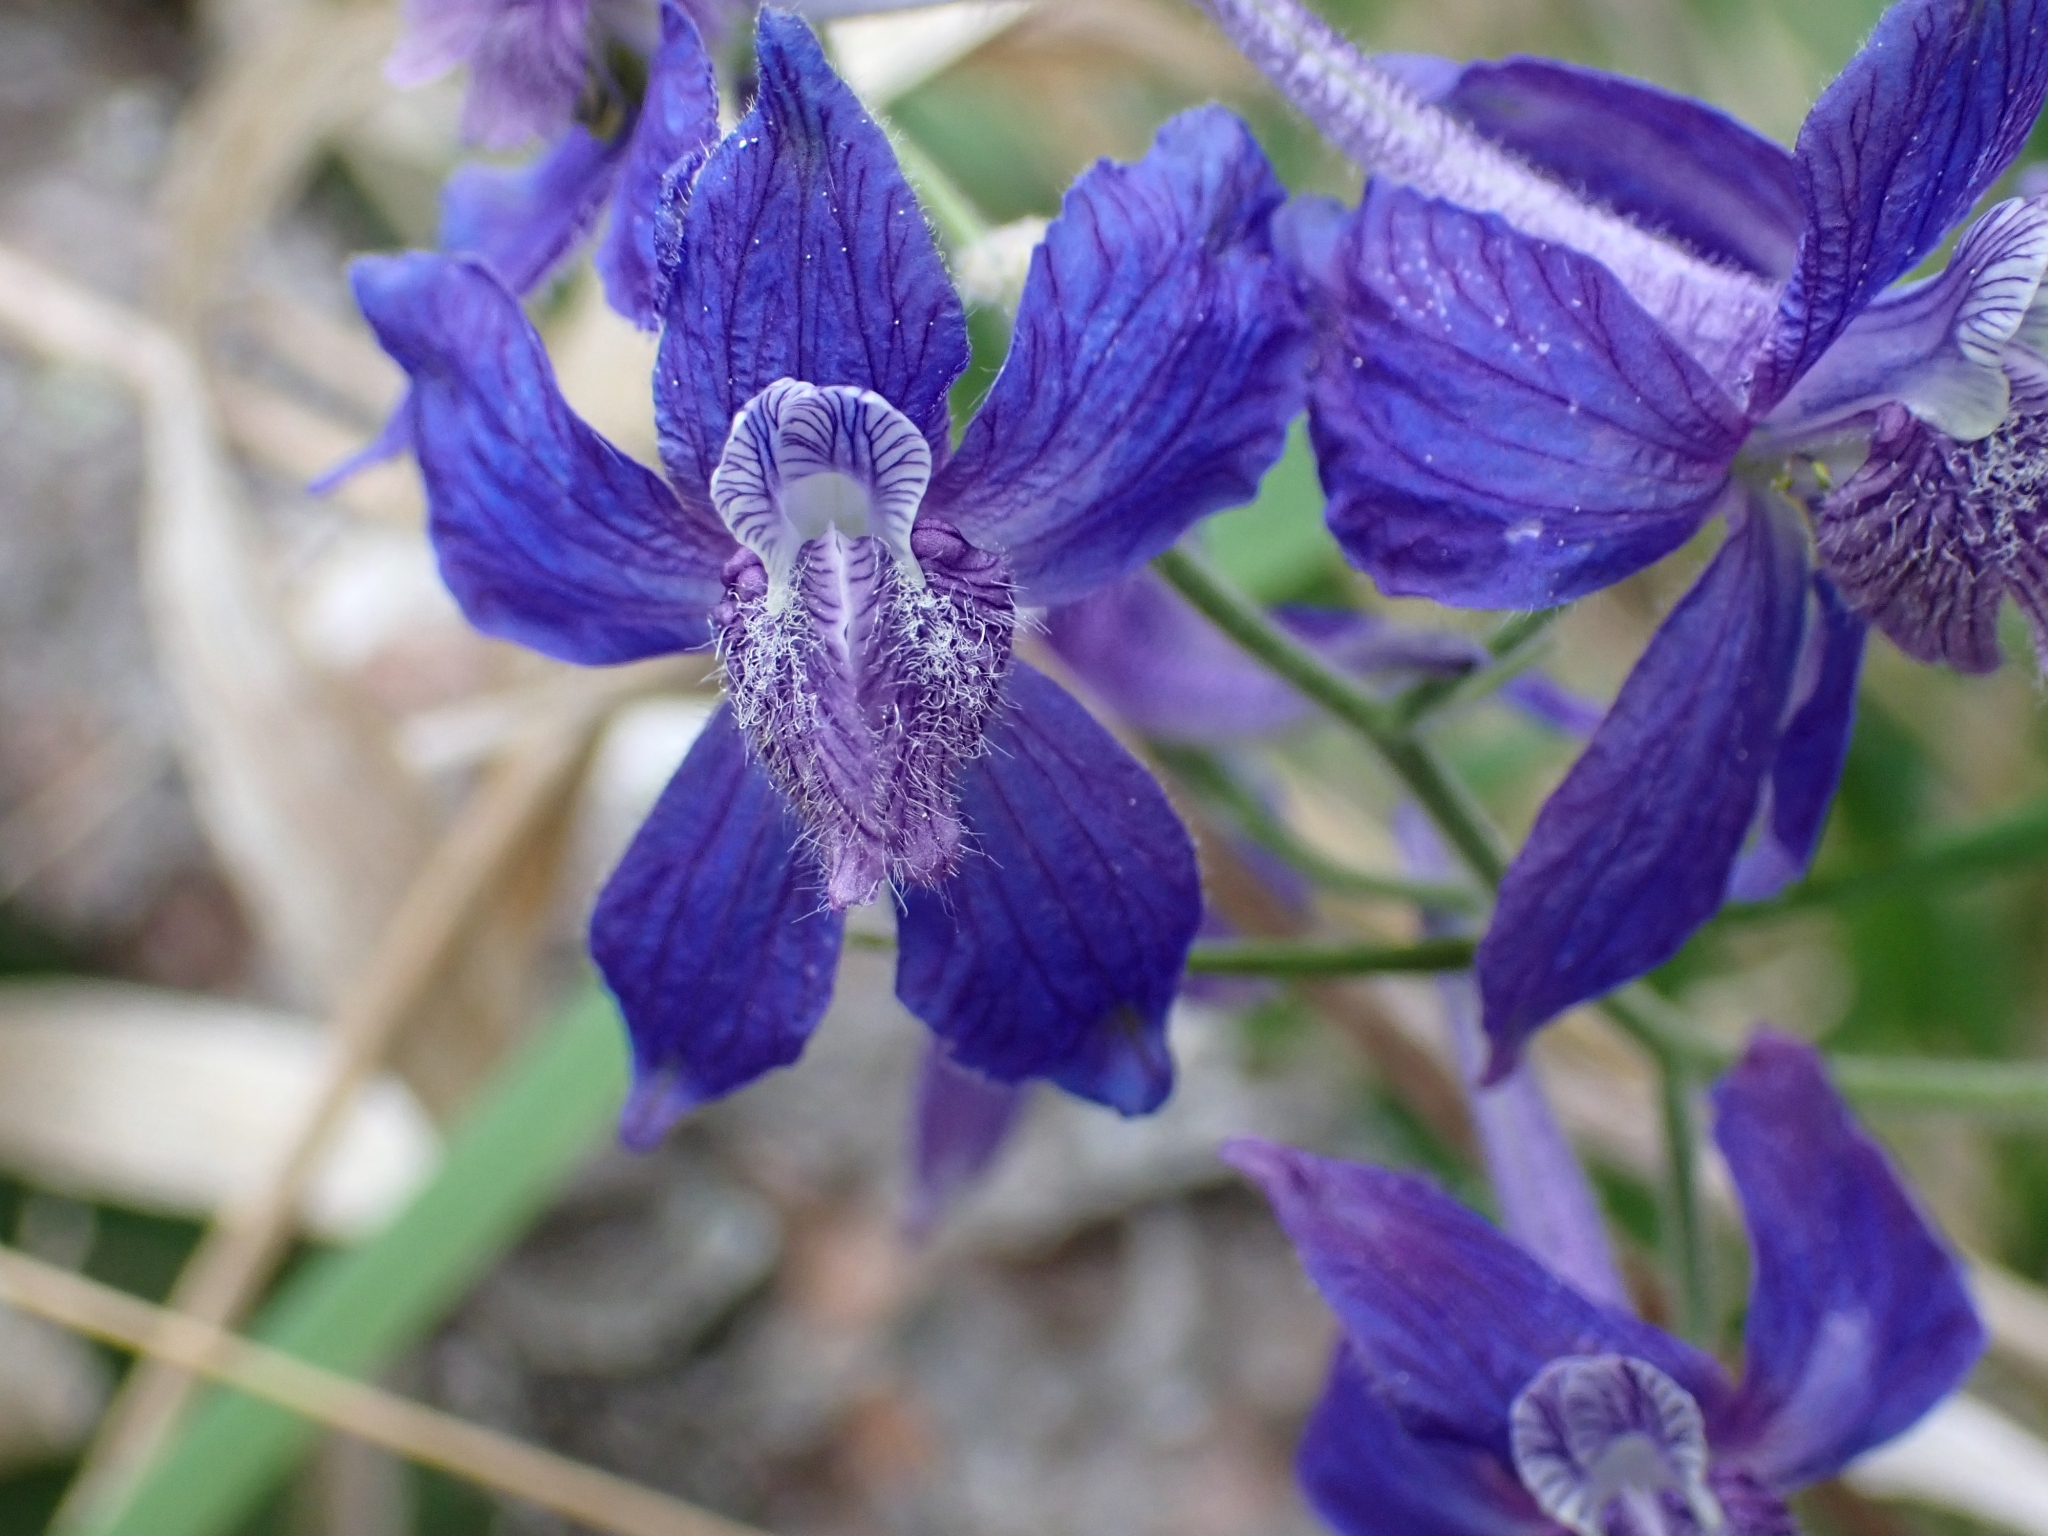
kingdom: Plantae
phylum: Tracheophyta
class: Magnoliopsida
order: Ranunculales
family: Ranunculaceae
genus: Delphinium
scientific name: Delphinium nuttallianum
